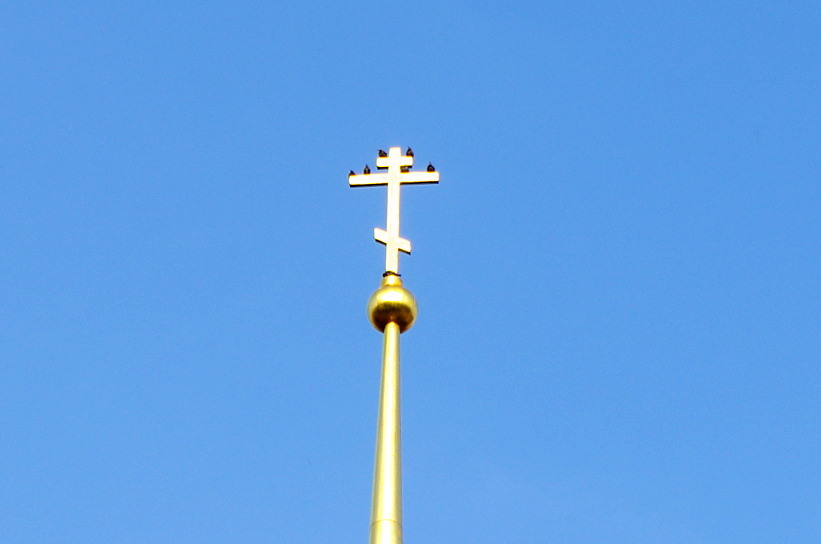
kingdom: Animalia
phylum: Chordata
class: Aves
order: Passeriformes
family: Sturnidae
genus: Sturnus
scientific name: Sturnus vulgaris
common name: Common starling
